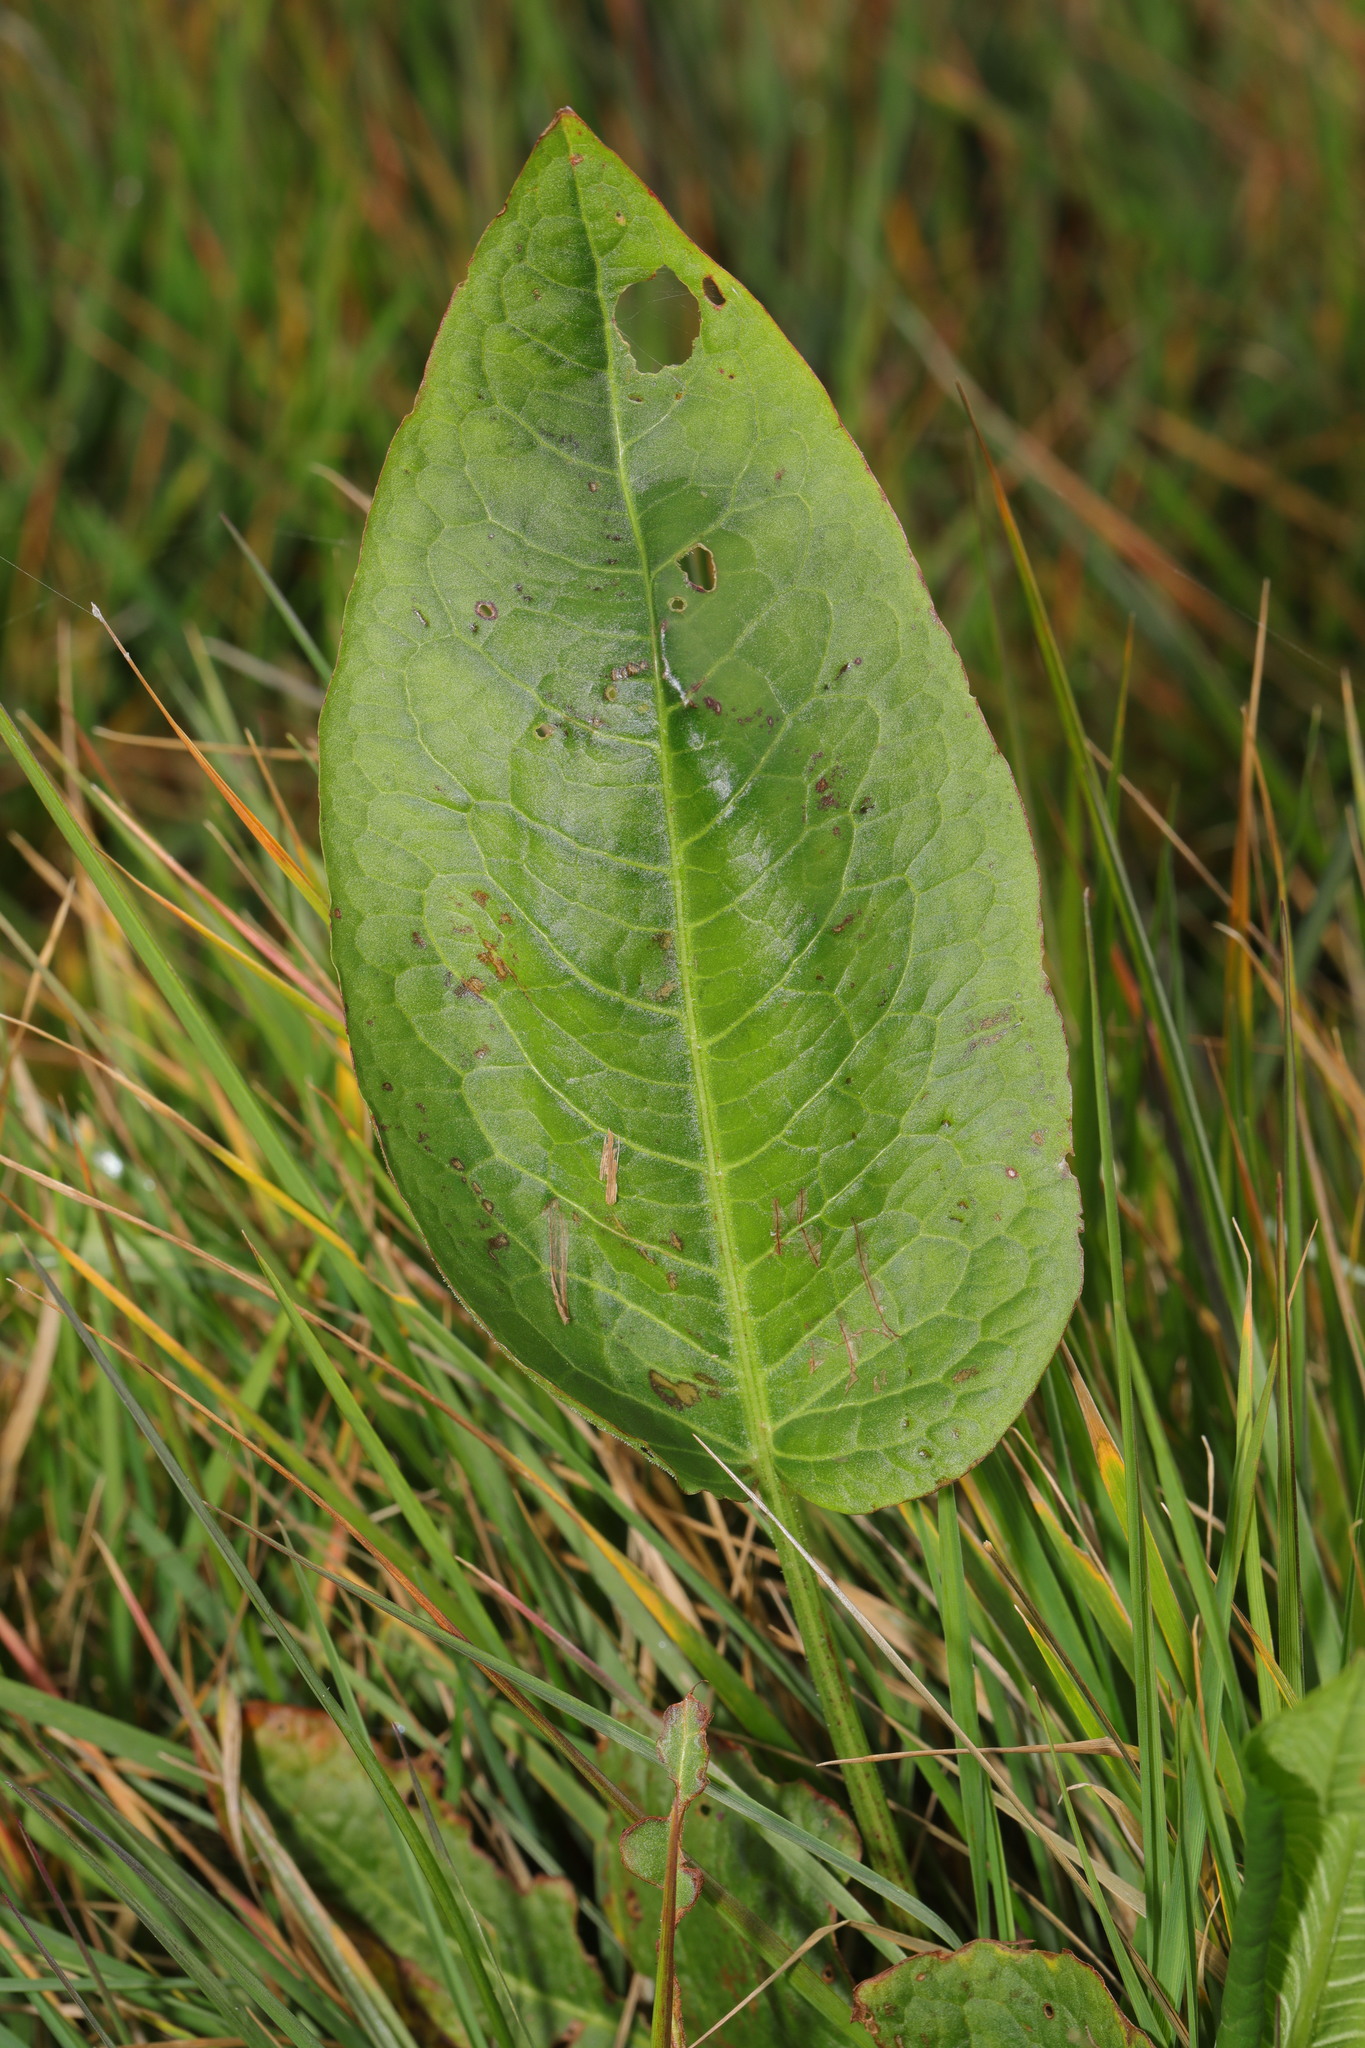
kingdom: Plantae
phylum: Tracheophyta
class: Magnoliopsida
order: Caryophyllales
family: Polygonaceae
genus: Rumex
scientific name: Rumex obtusifolius
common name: Bitter dock
